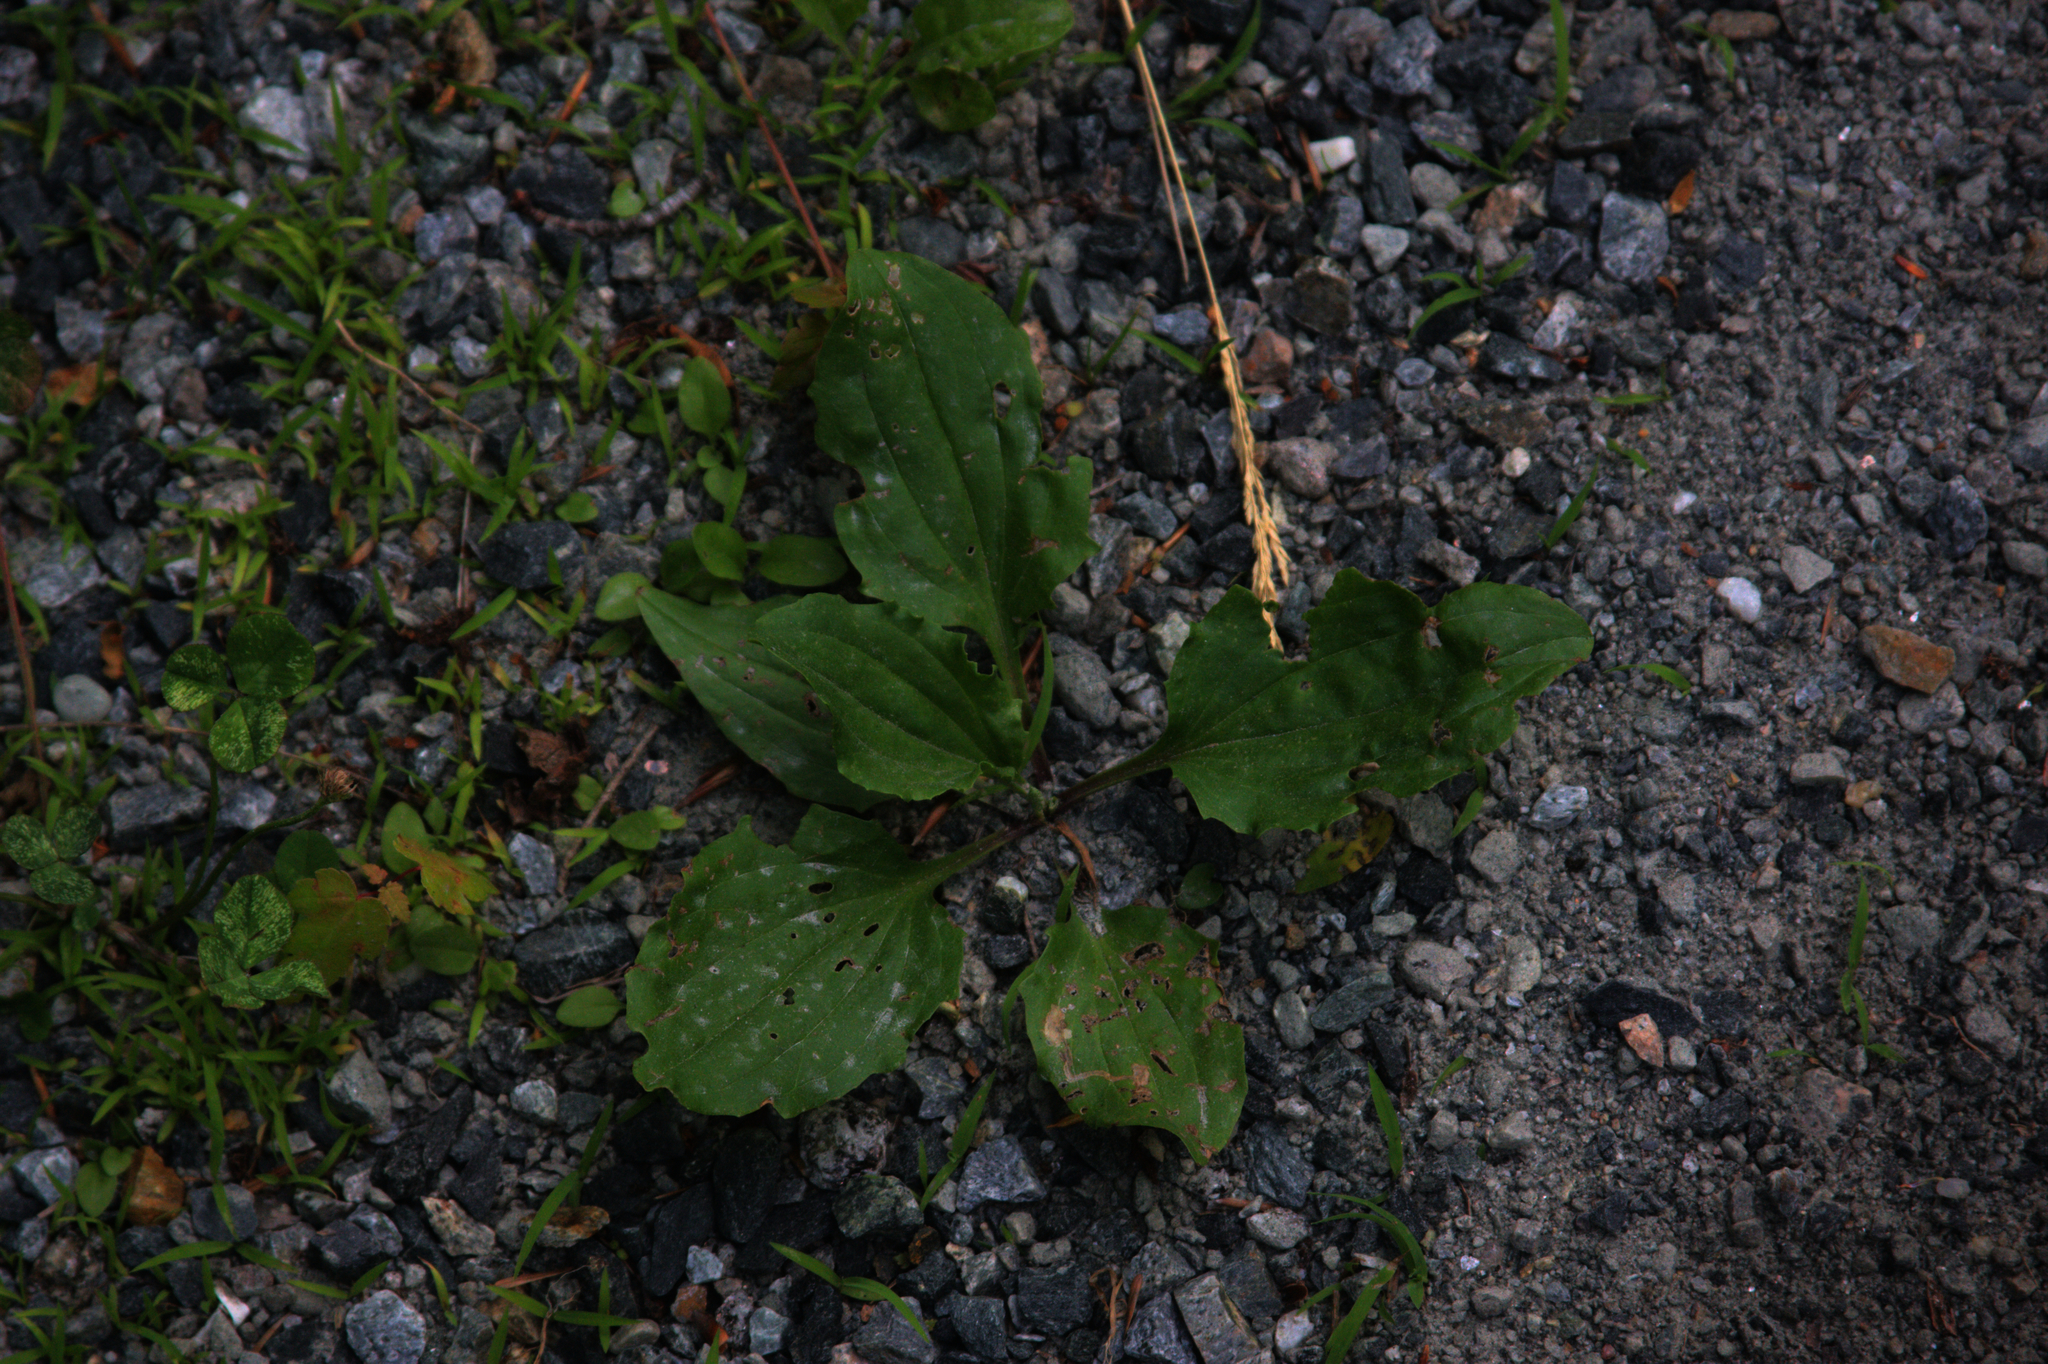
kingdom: Plantae
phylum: Tracheophyta
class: Magnoliopsida
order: Lamiales
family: Plantaginaceae
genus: Plantago
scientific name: Plantago rugelii
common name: American plantain
